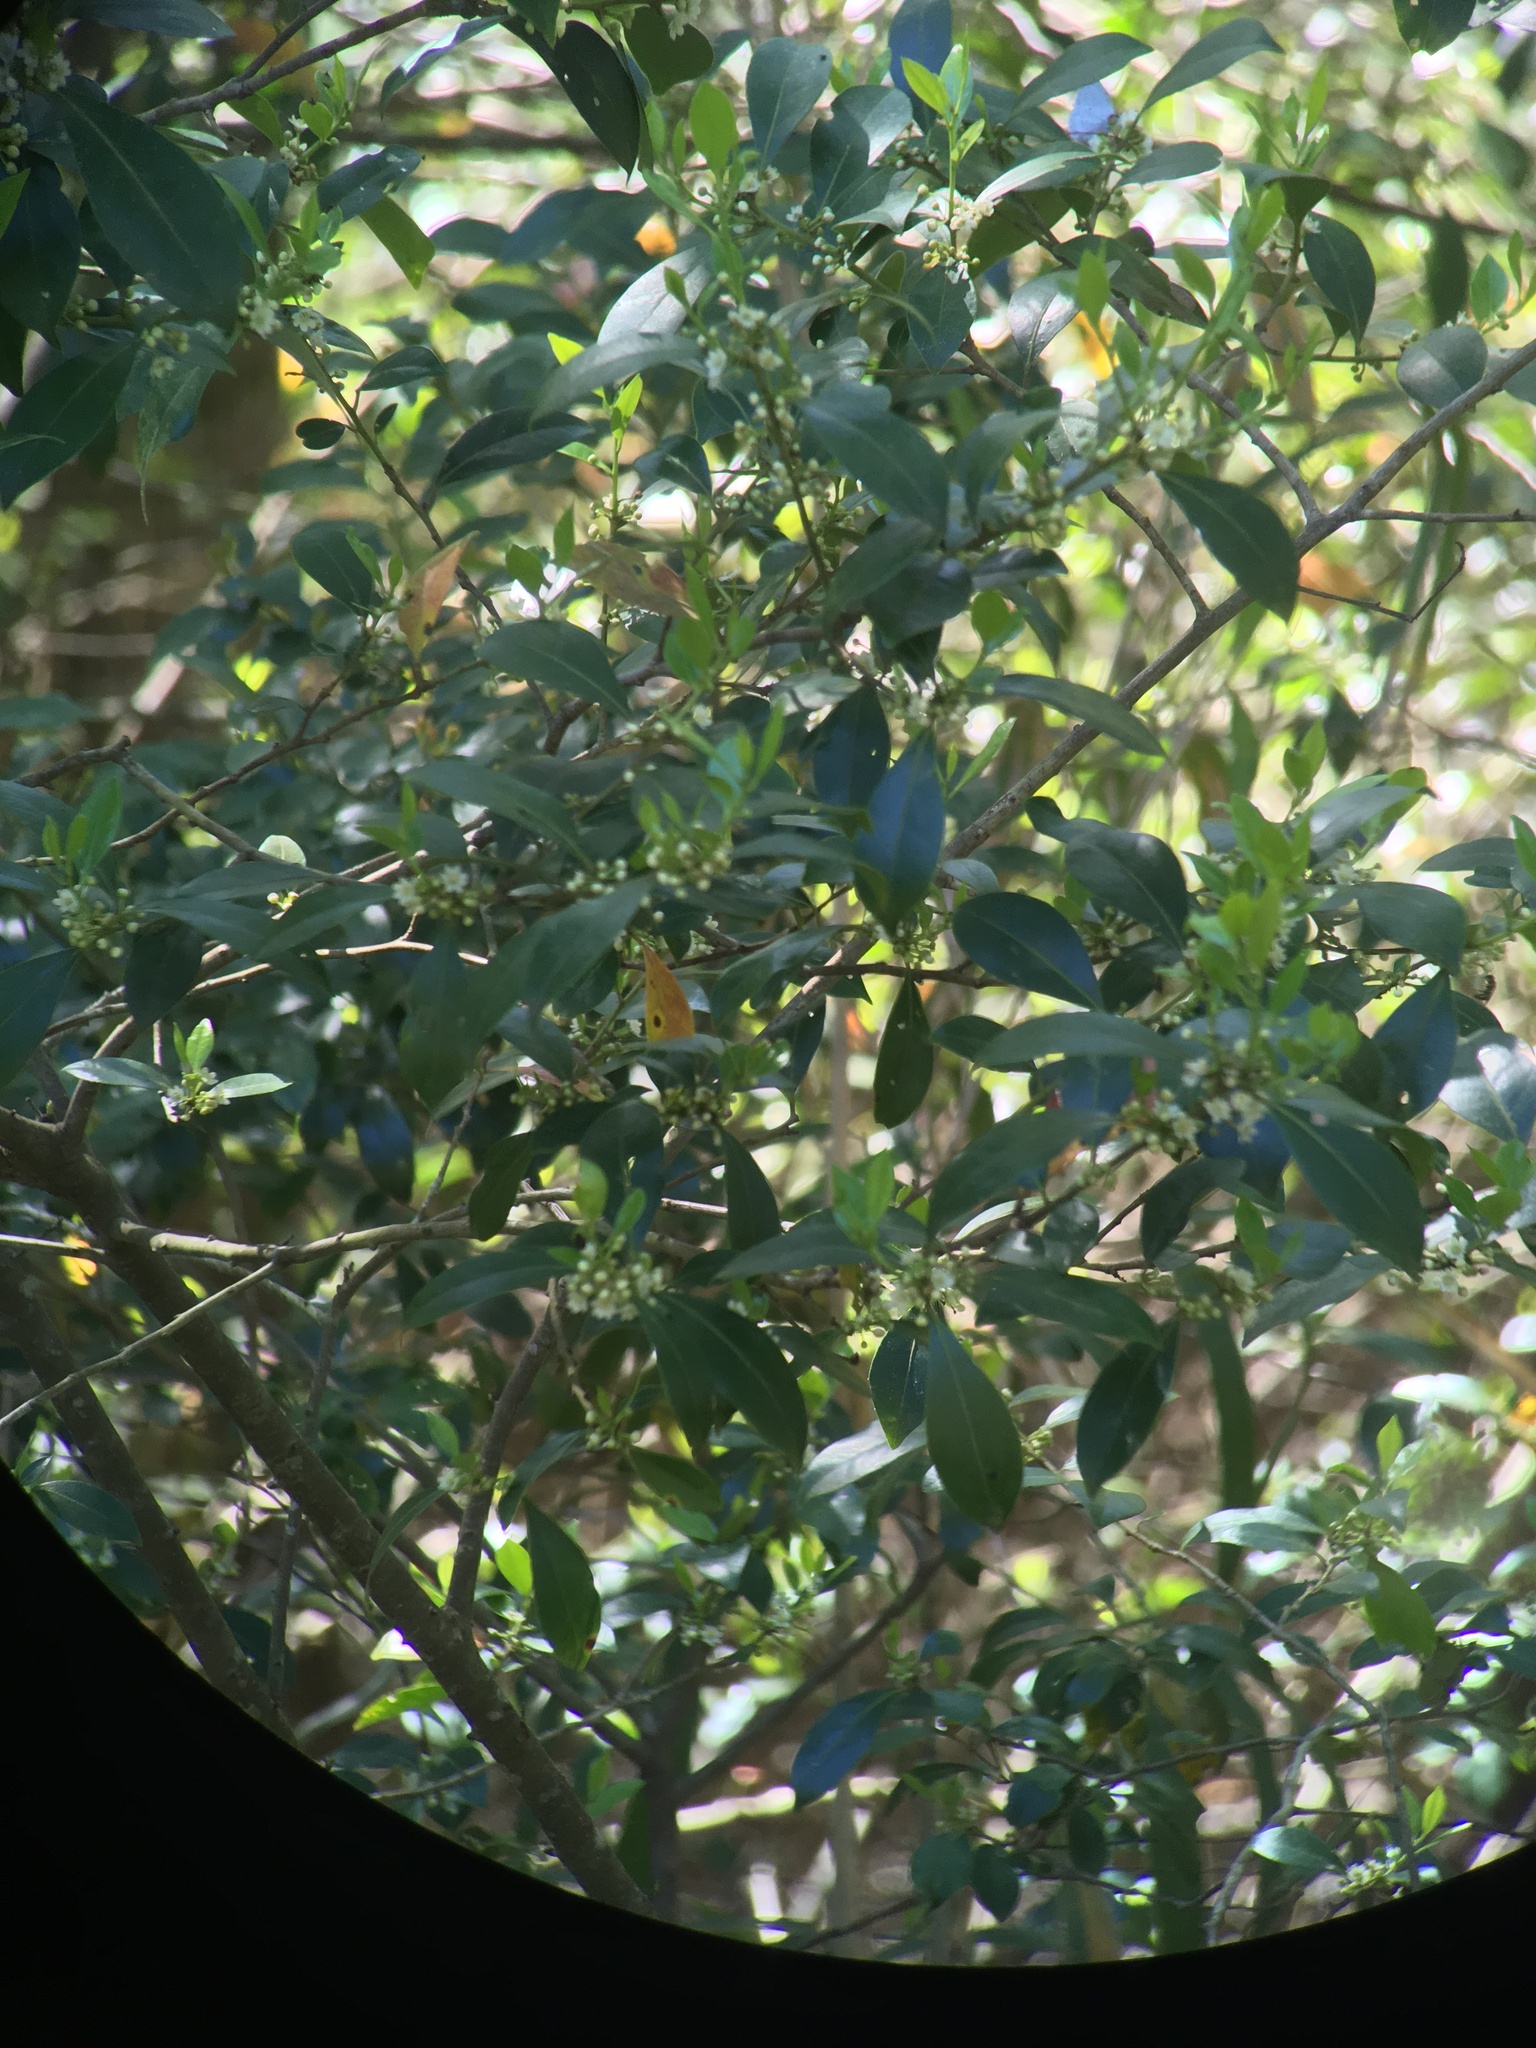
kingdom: Plantae
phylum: Tracheophyta
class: Magnoliopsida
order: Lamiales
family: Oleaceae
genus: Cartrema
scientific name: Cartrema americana
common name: Devilwood
